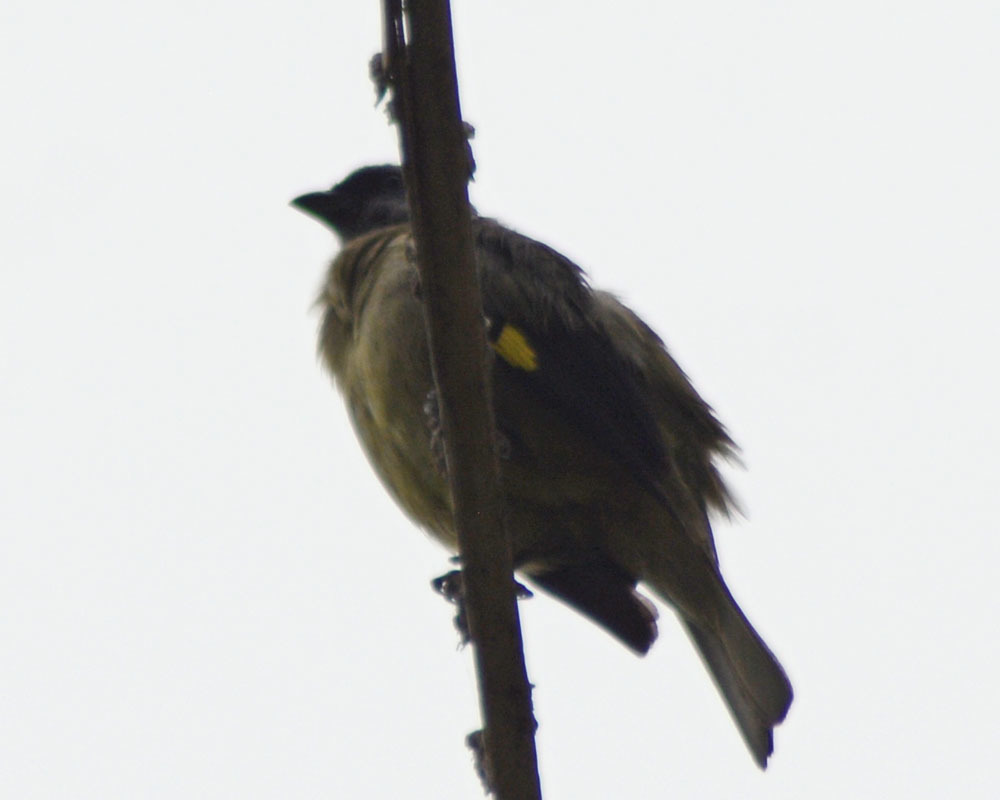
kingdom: Animalia
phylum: Chordata
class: Aves
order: Passeriformes
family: Thraupidae
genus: Thraupis
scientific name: Thraupis abbas
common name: Yellow-winged tanager
